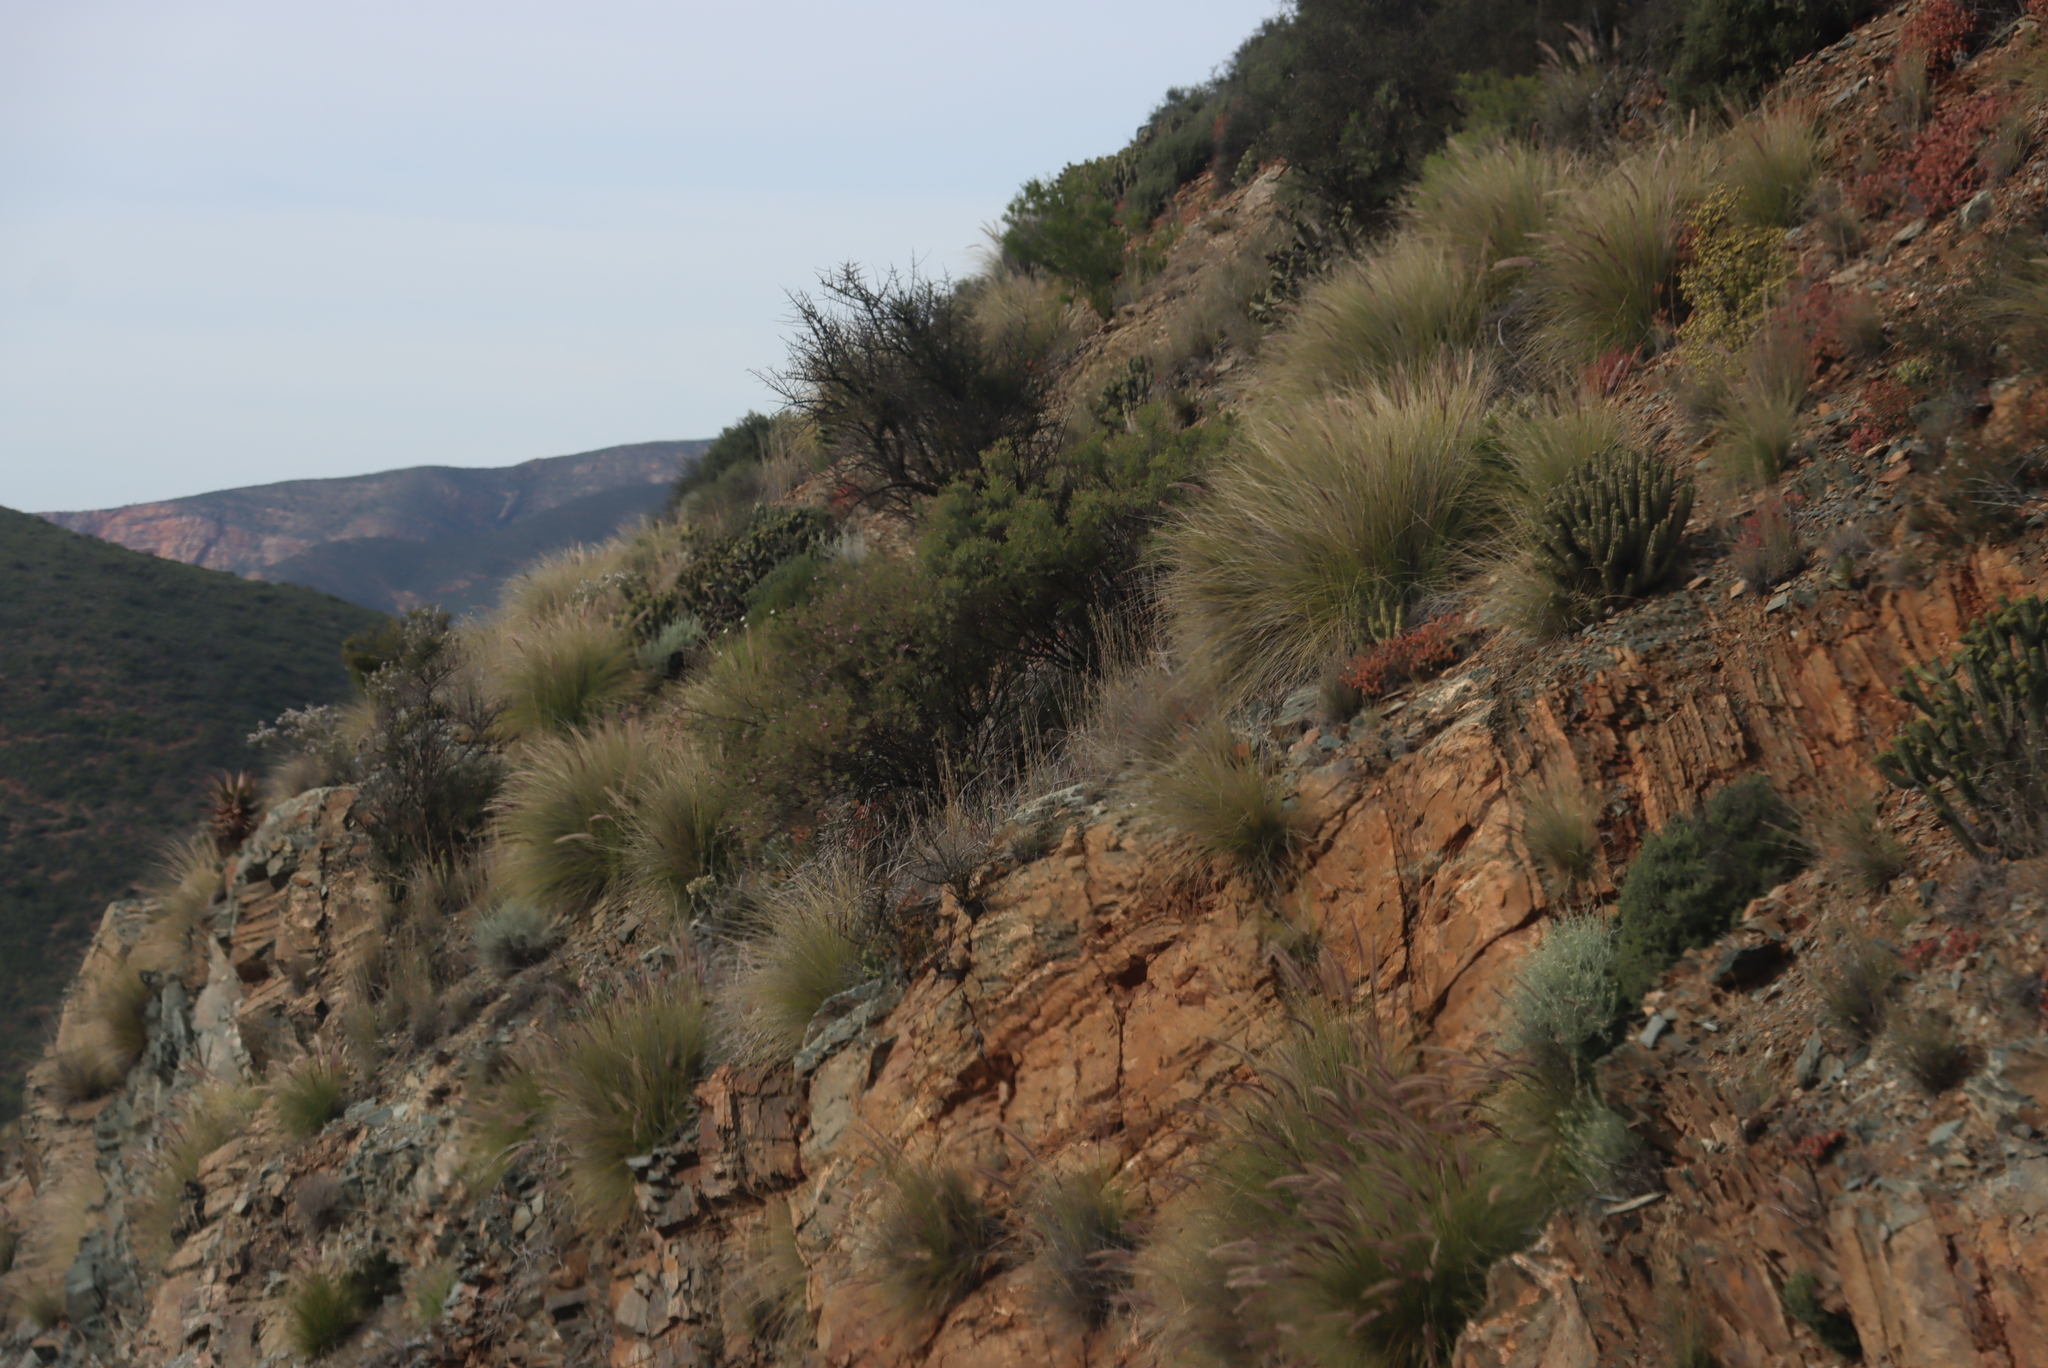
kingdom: Plantae
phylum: Tracheophyta
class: Liliopsida
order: Poales
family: Poaceae
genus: Cenchrus
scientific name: Cenchrus setaceus
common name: Crimson fountaingrass
